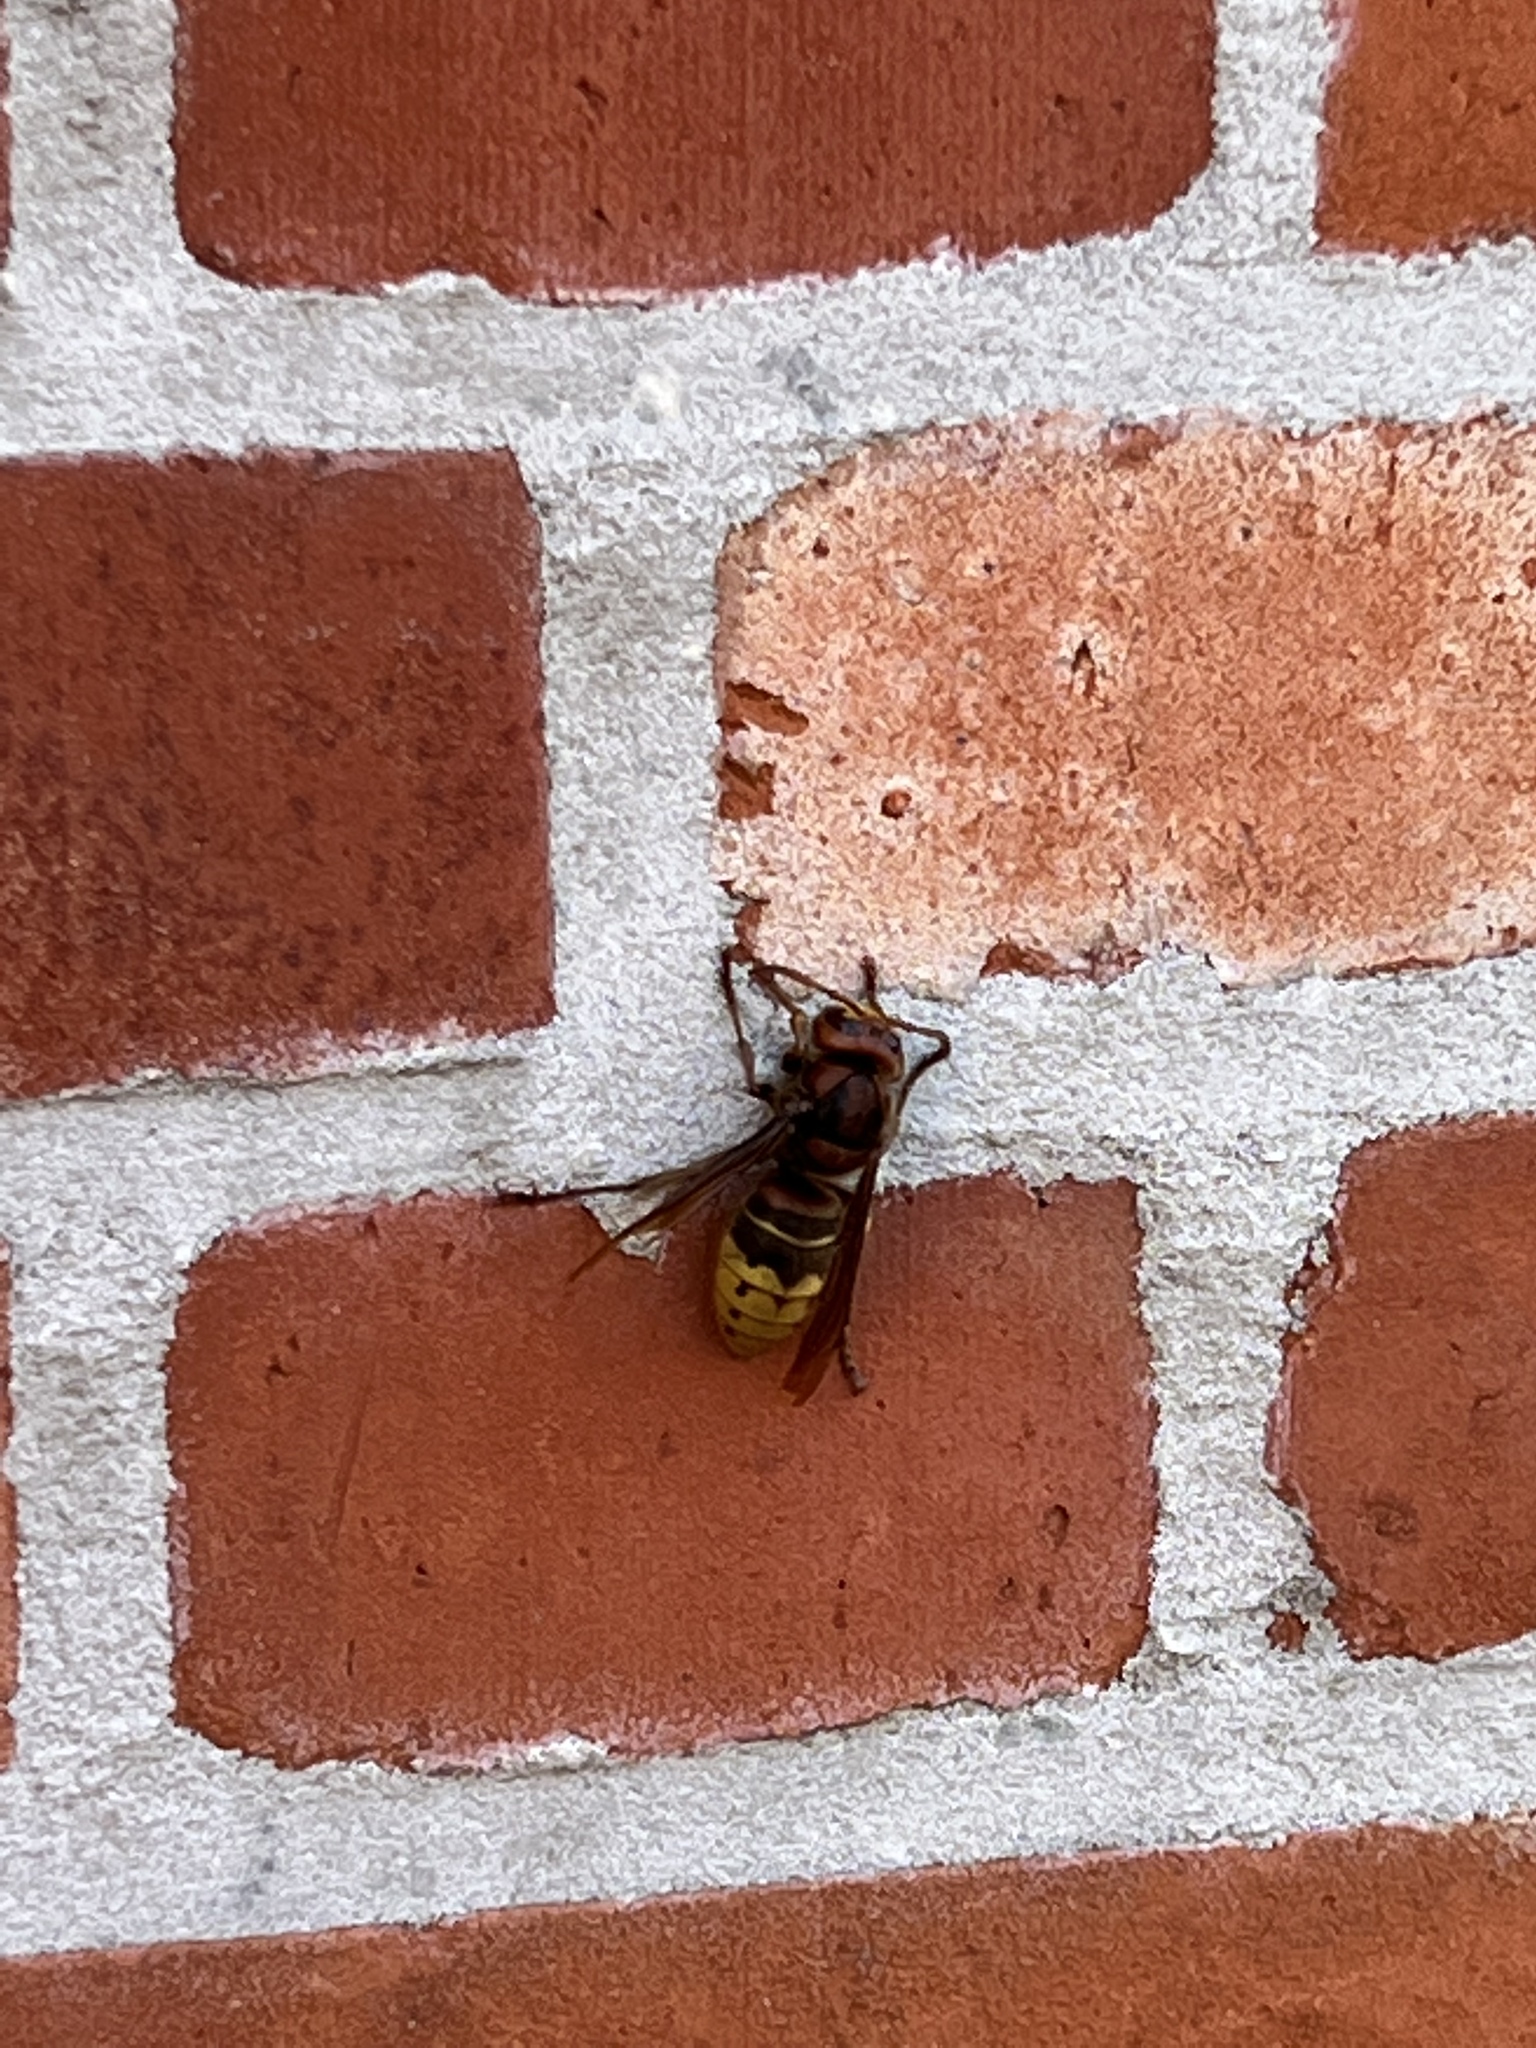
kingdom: Animalia
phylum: Arthropoda
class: Insecta
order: Hymenoptera
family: Vespidae
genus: Vespa
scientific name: Vespa crabro
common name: Hornet
